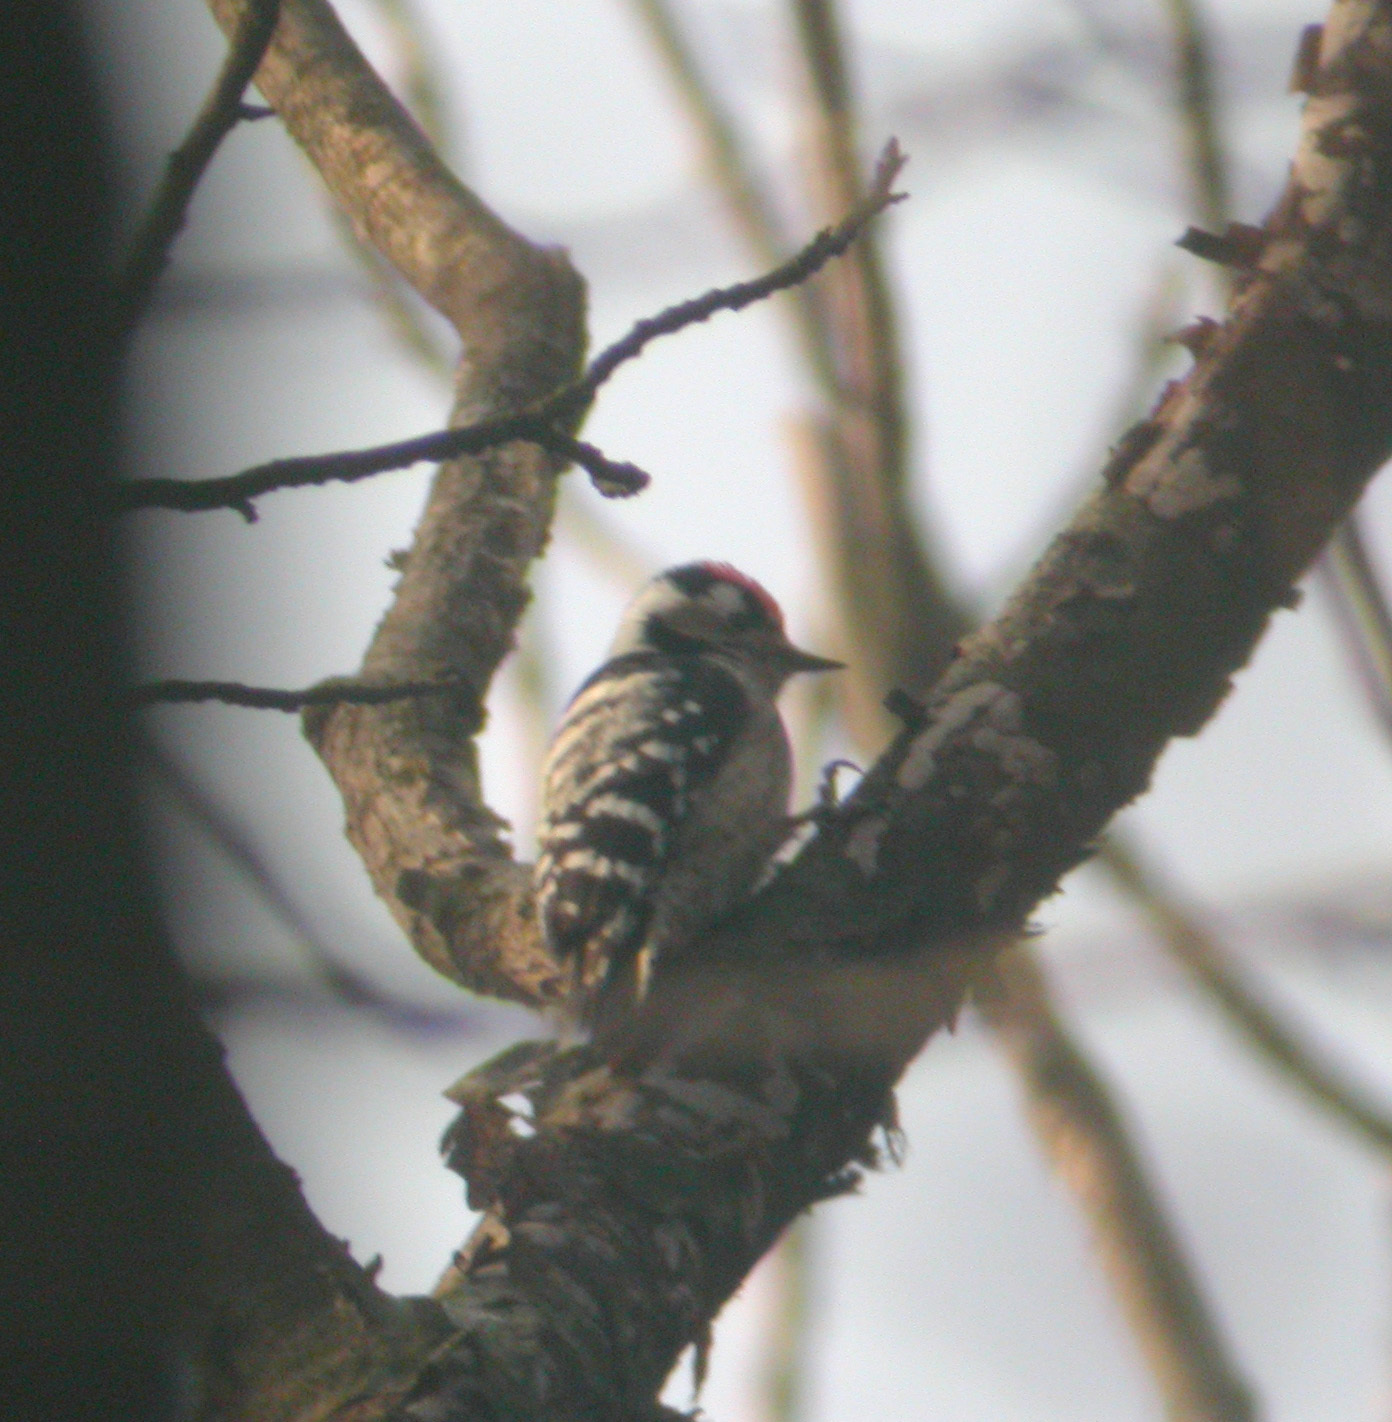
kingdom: Animalia
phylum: Chordata
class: Aves
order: Piciformes
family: Picidae
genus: Dryobates
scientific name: Dryobates minor
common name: Lesser spotted woodpecker
